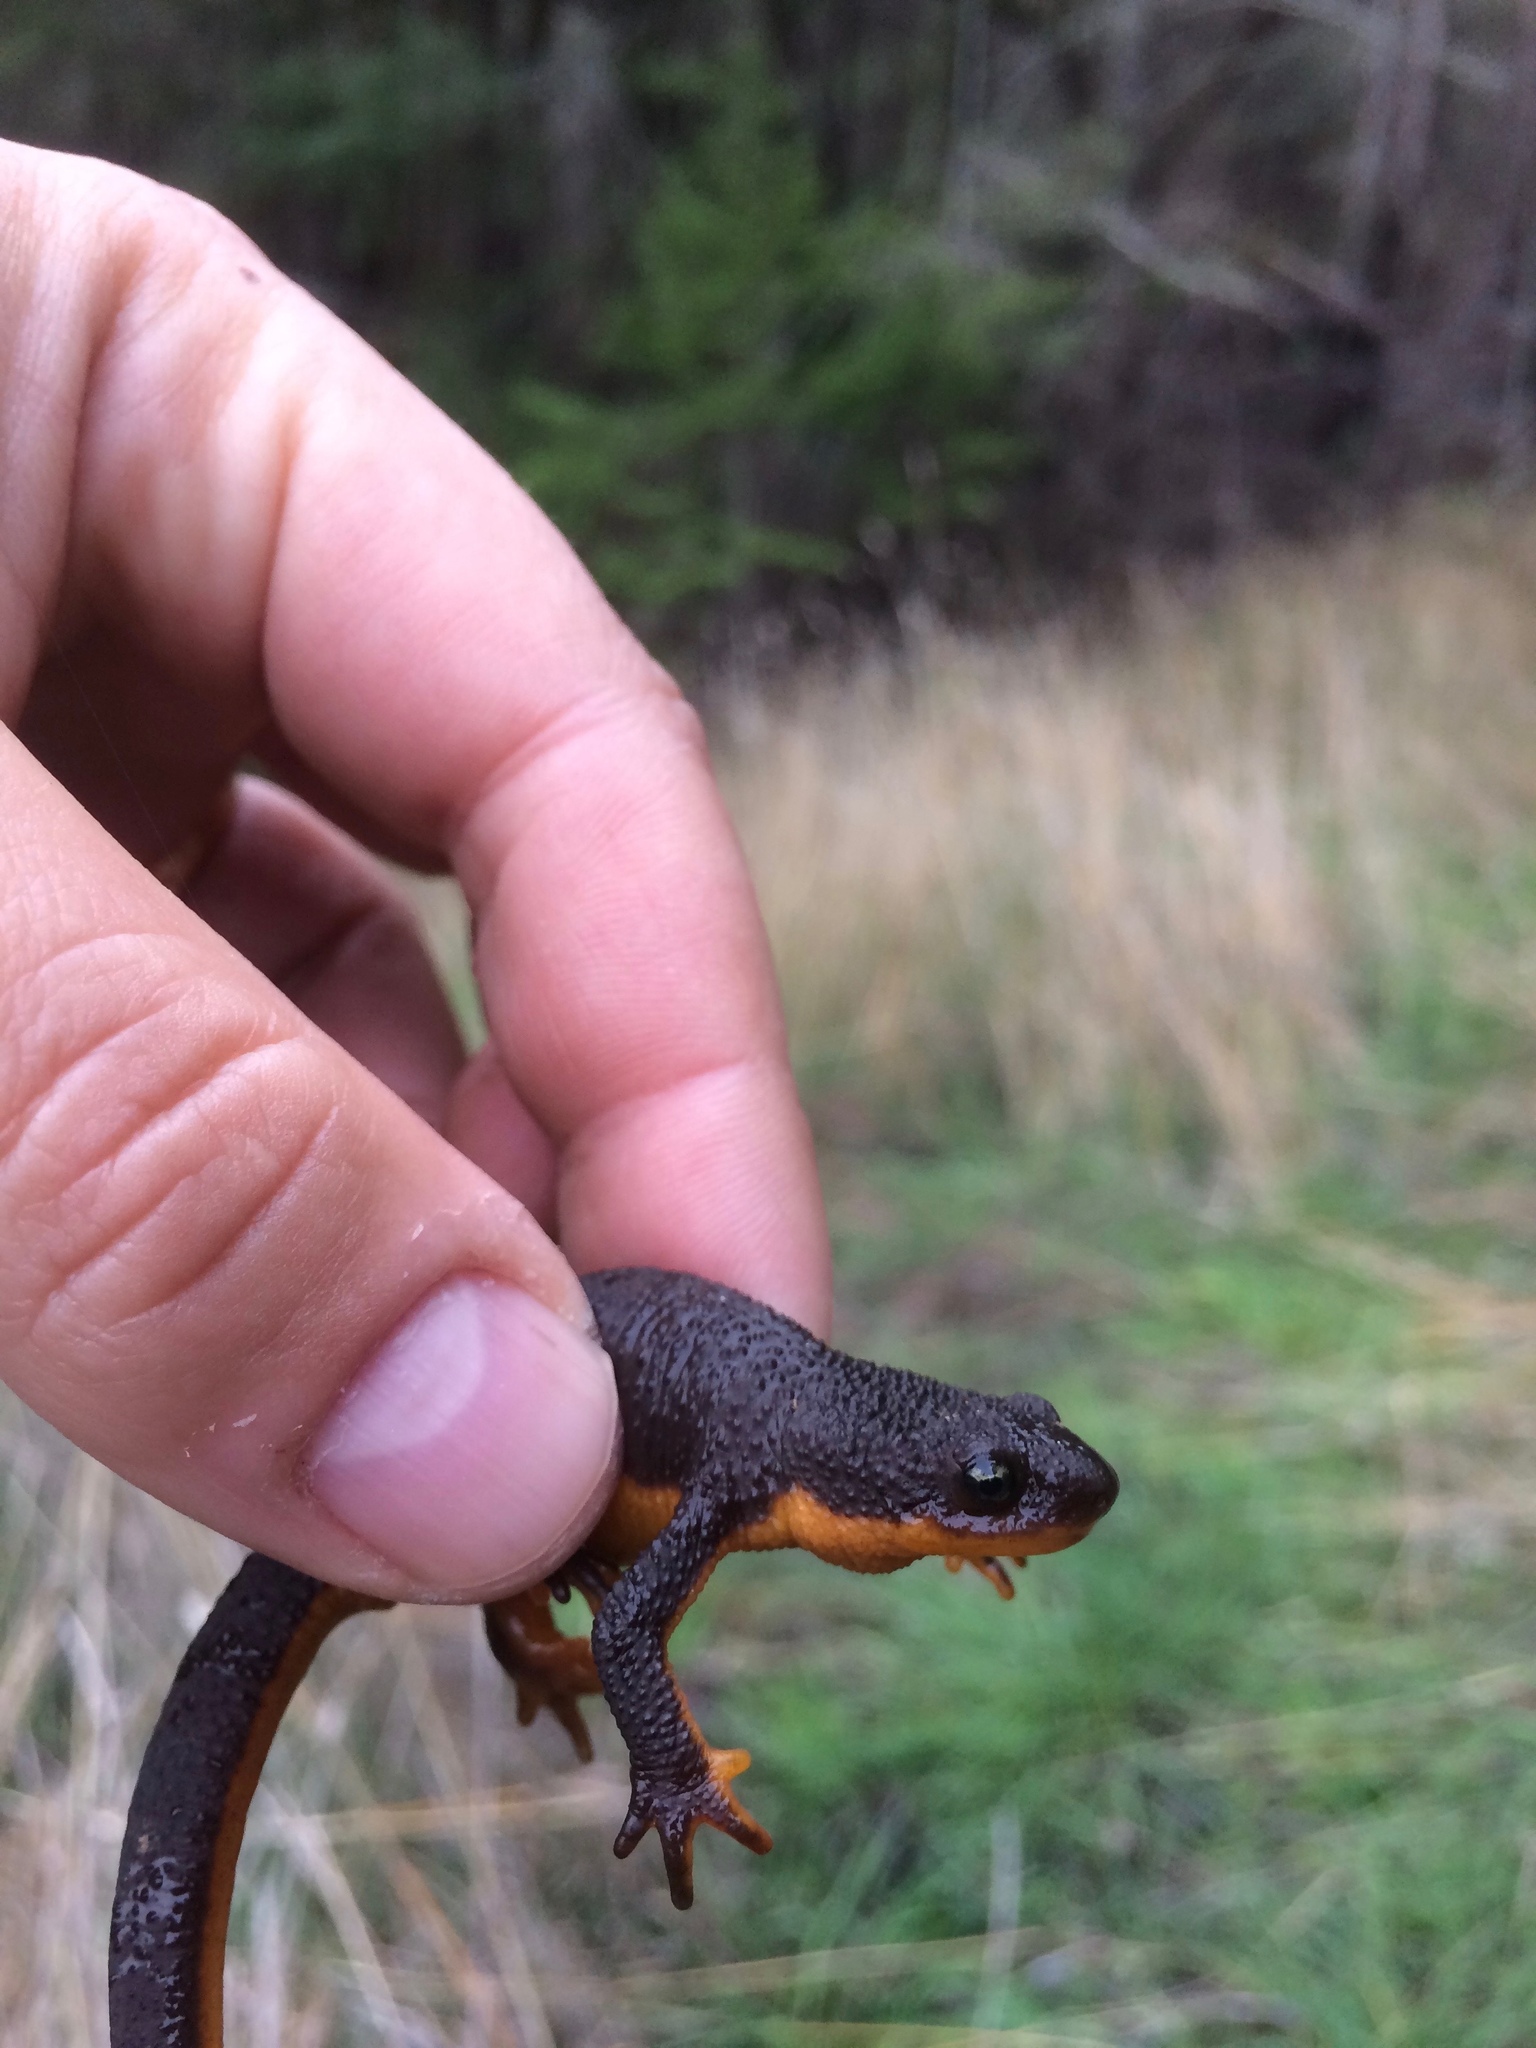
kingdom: Animalia
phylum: Chordata
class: Amphibia
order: Caudata
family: Salamandridae
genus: Taricha
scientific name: Taricha granulosa
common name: Roughskin newt
